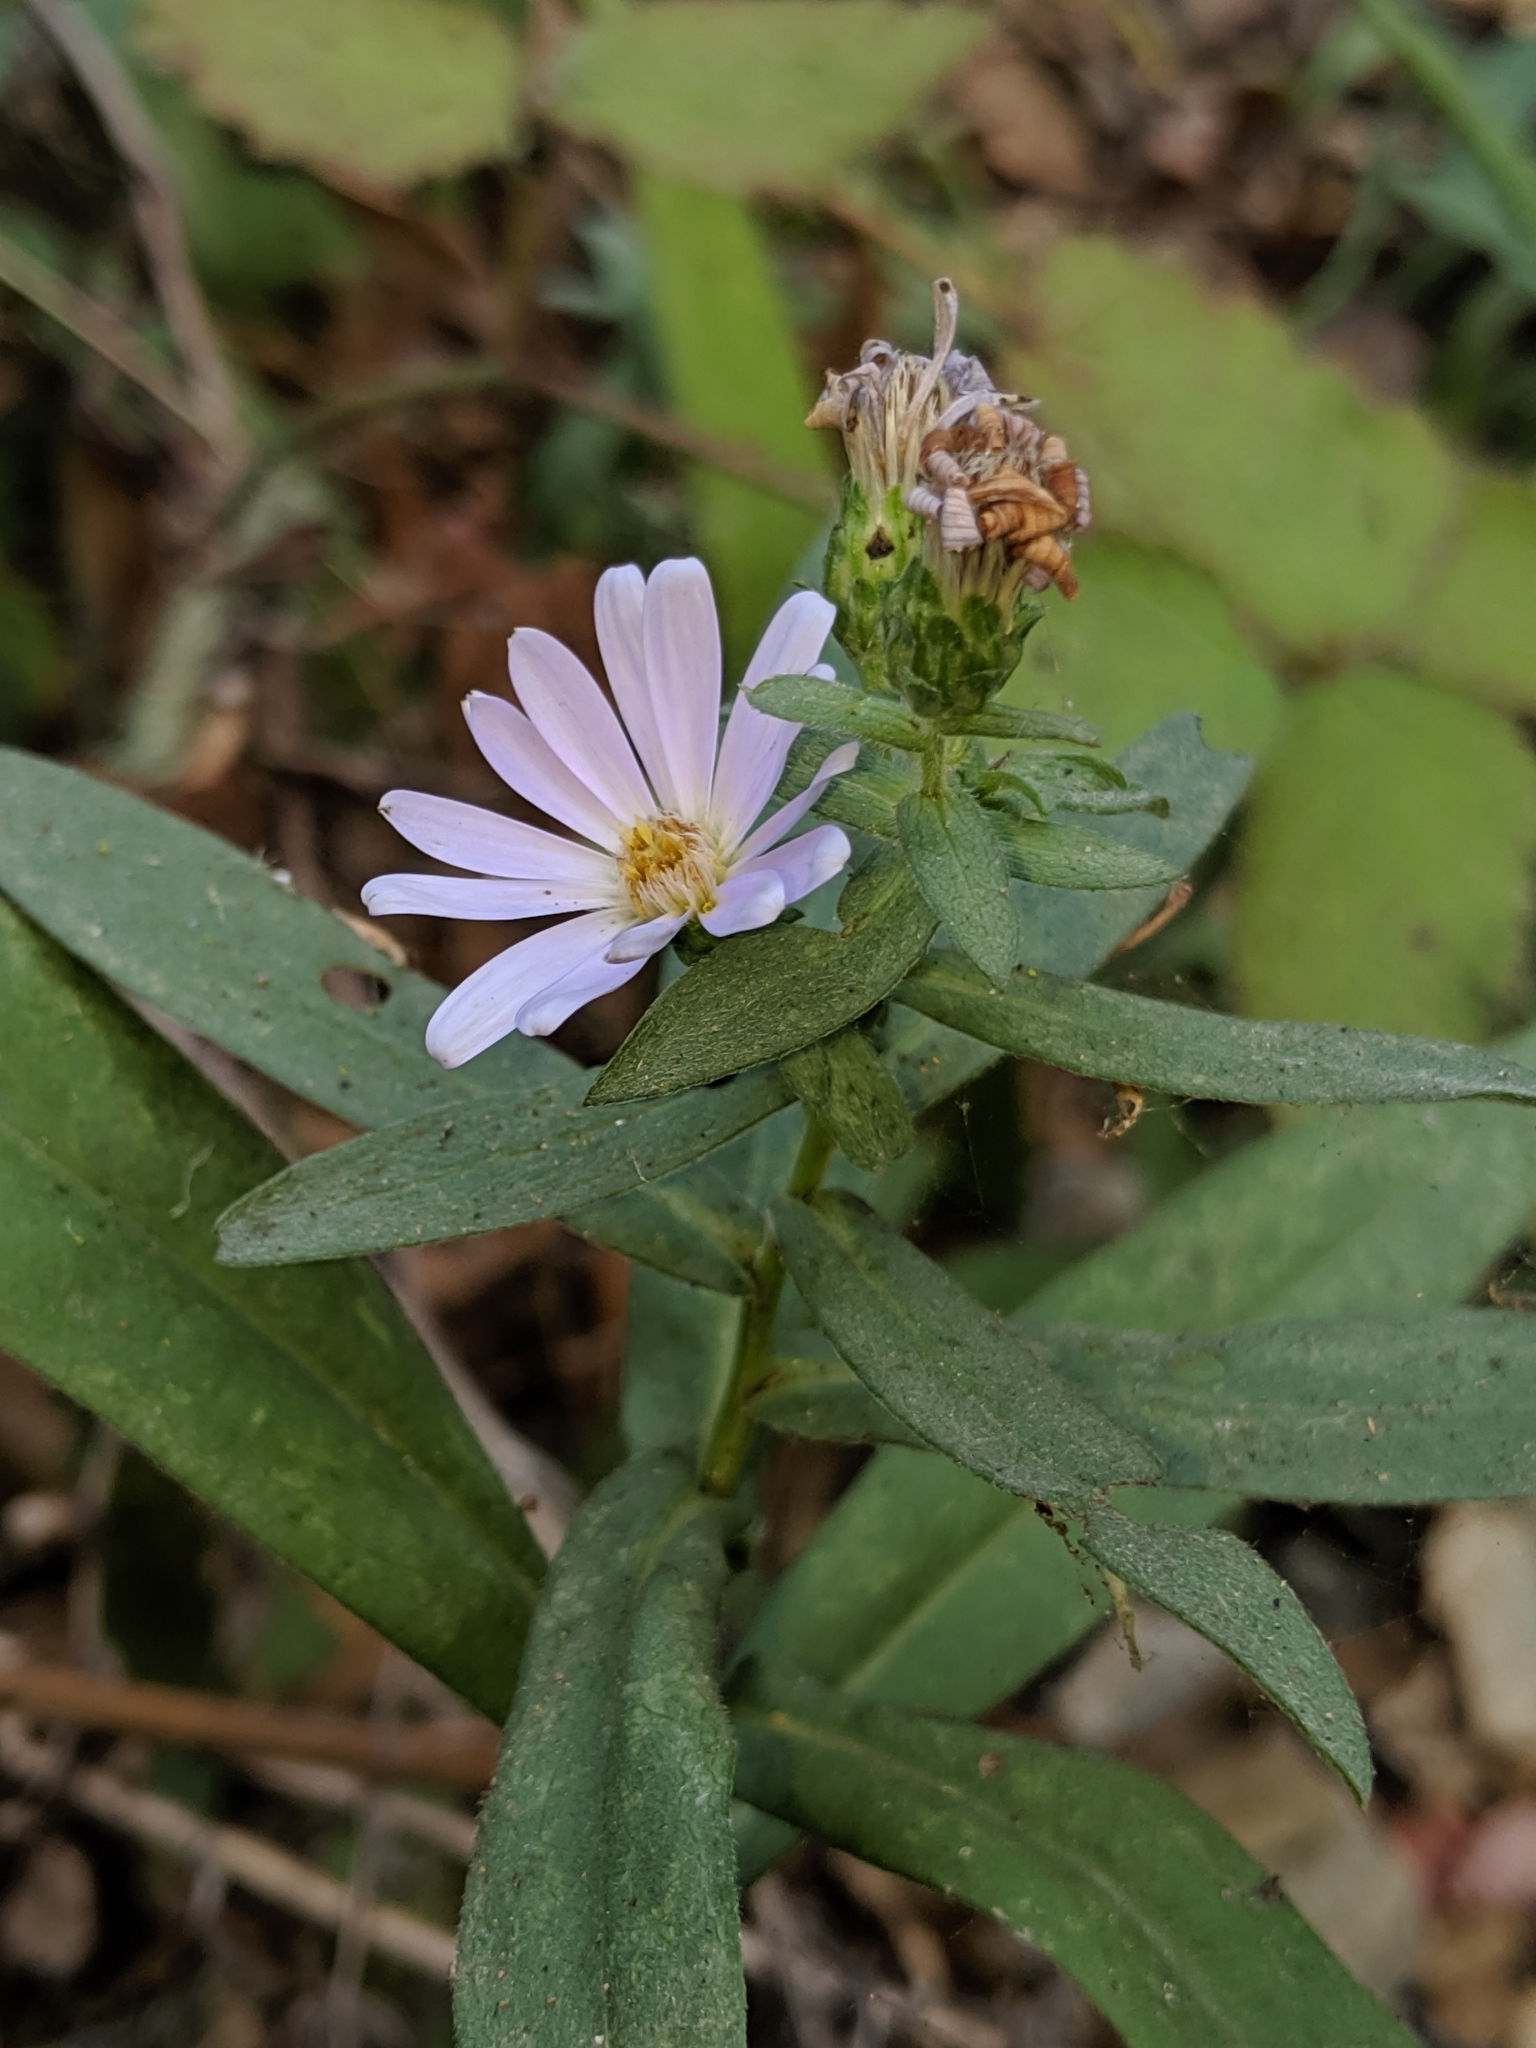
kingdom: Plantae
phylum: Tracheophyta
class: Magnoliopsida
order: Asterales
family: Asteraceae
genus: Symphyotrichum
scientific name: Symphyotrichum chilense
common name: Pacific aster
